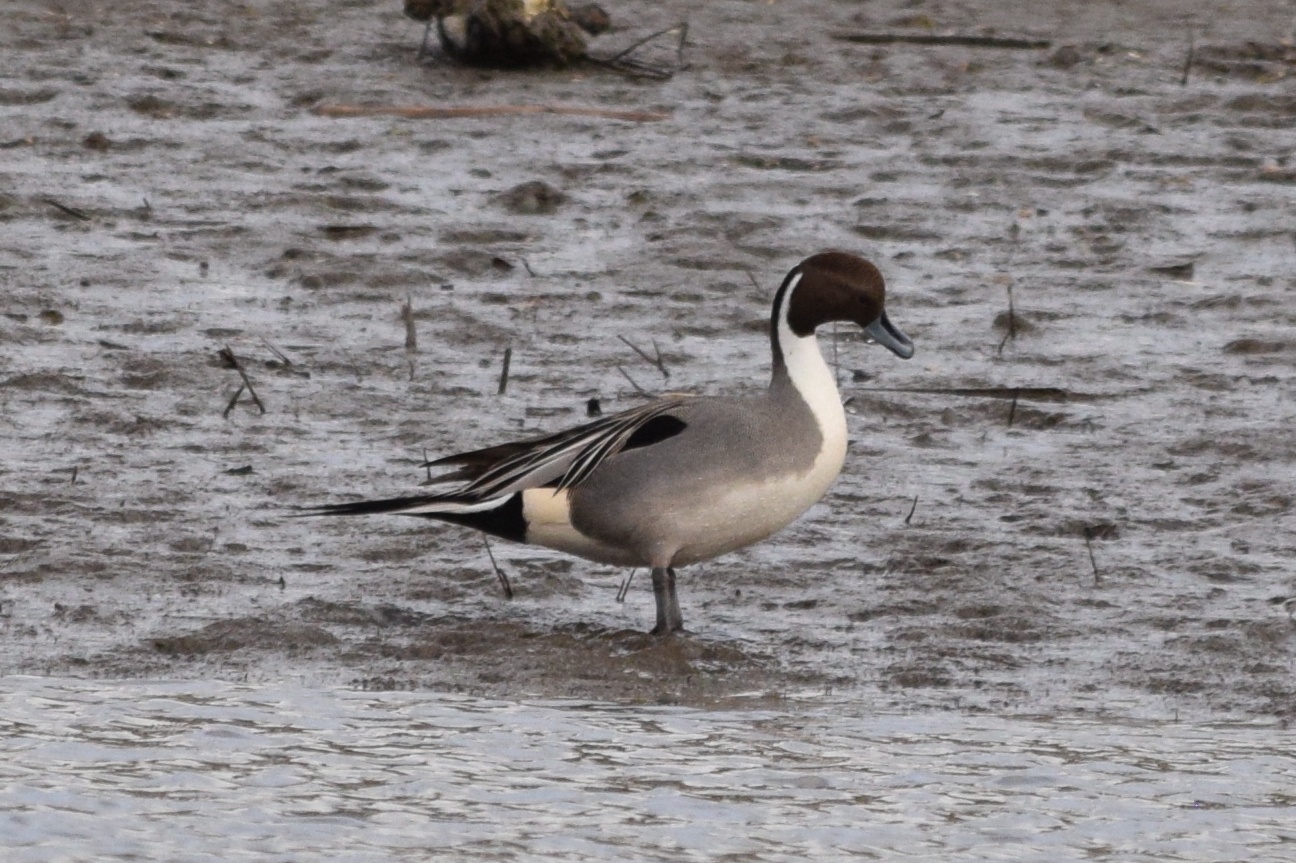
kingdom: Animalia
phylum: Chordata
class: Aves
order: Anseriformes
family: Anatidae
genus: Anas
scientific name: Anas acuta
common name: Northern pintail
